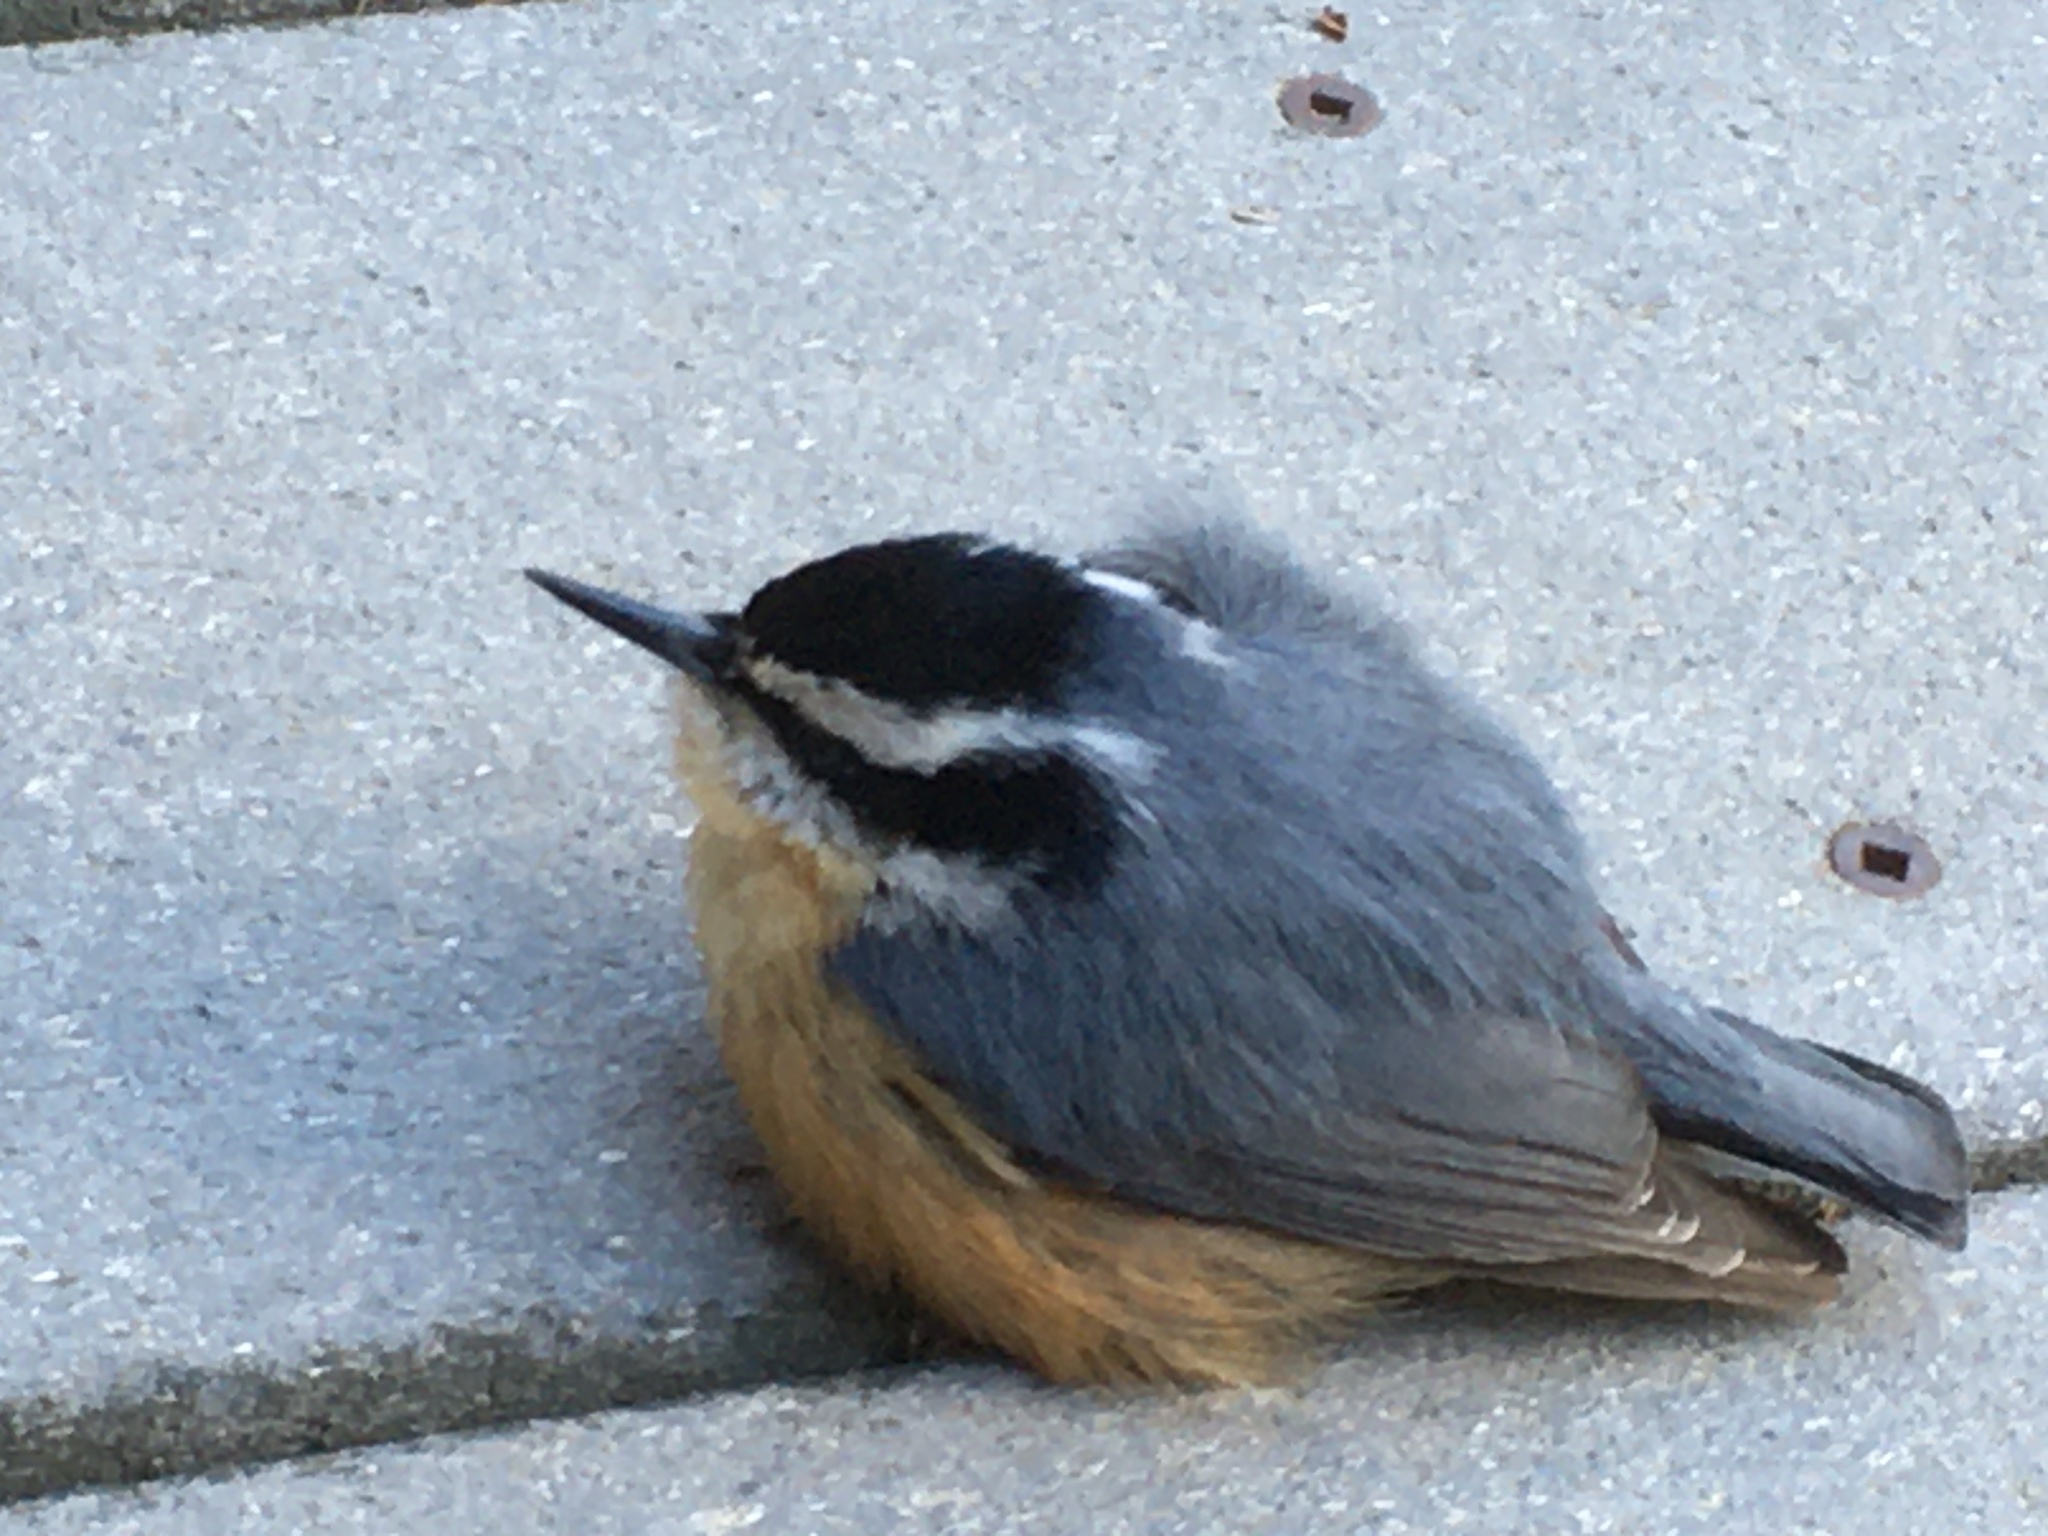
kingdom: Animalia
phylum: Chordata
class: Aves
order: Passeriformes
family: Sittidae
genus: Sitta
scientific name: Sitta canadensis
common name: Red-breasted nuthatch
